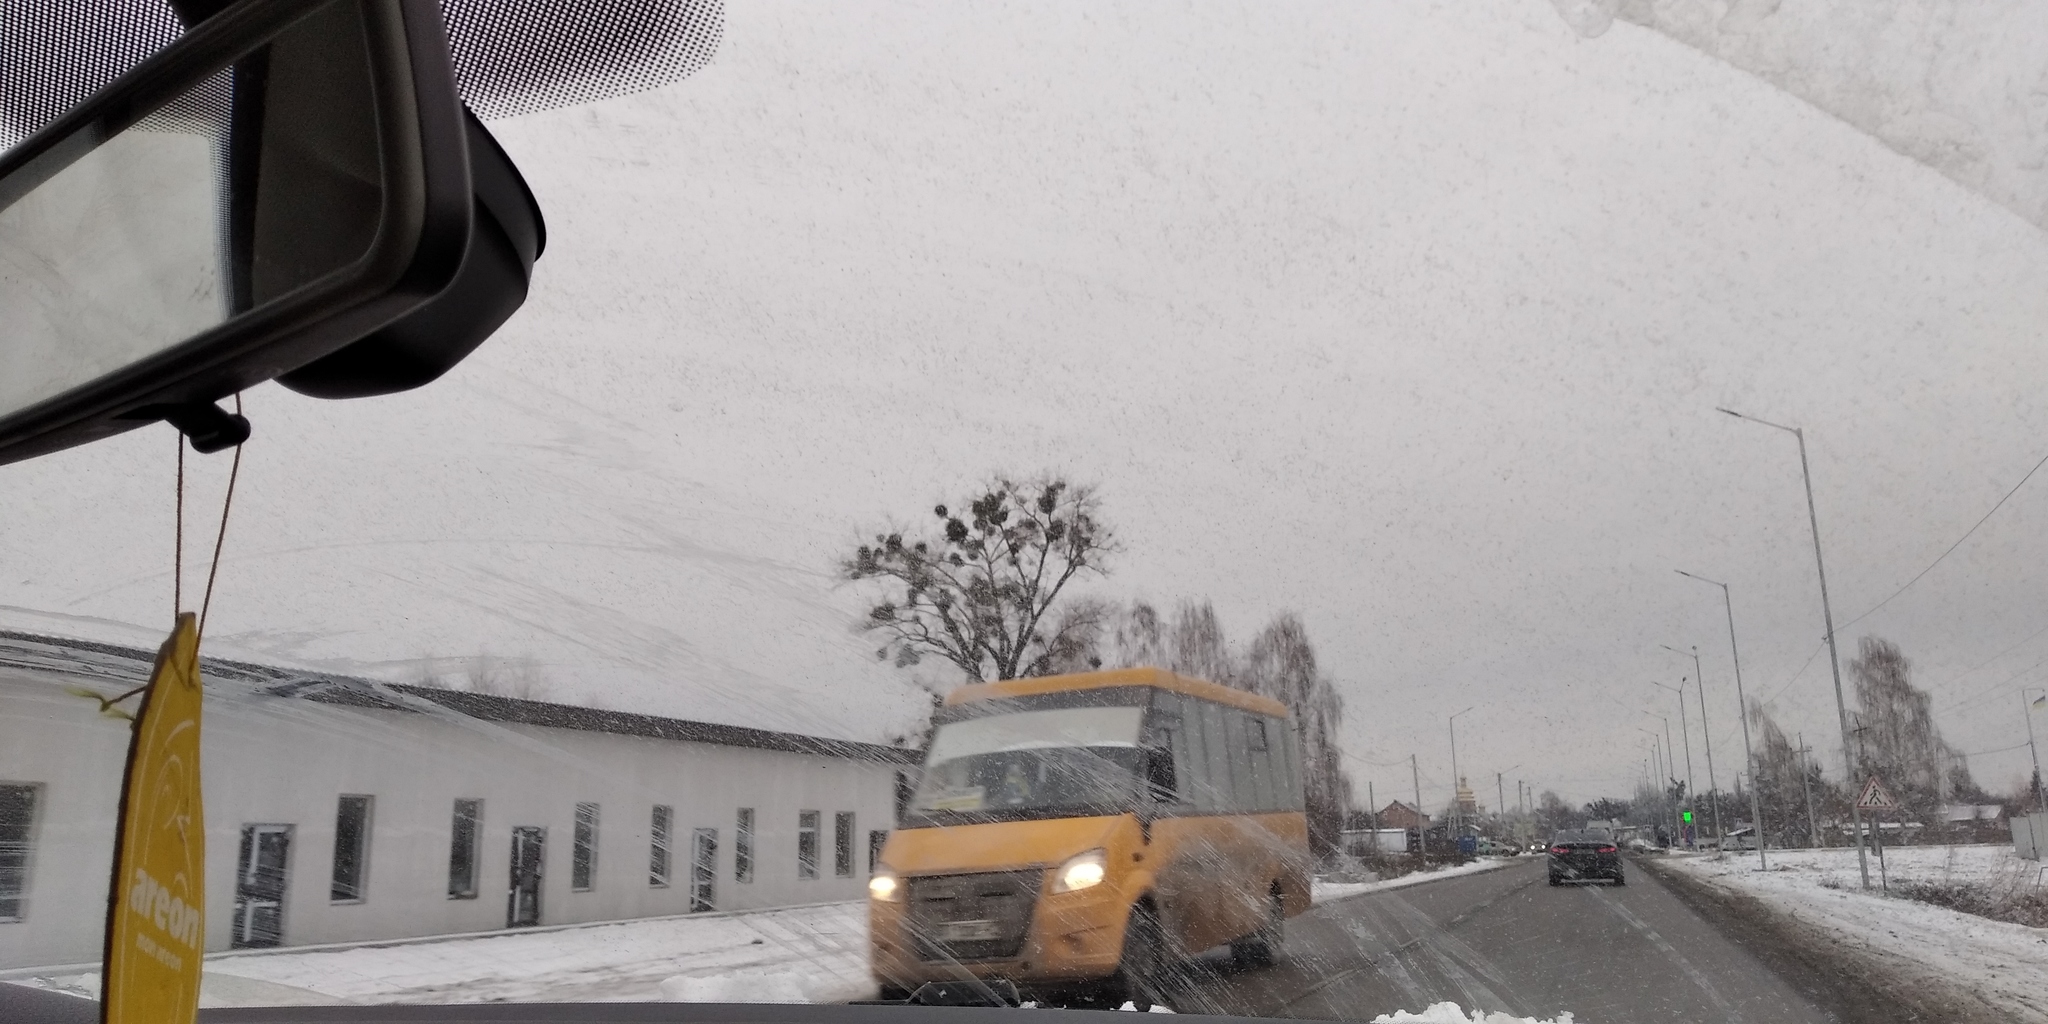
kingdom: Plantae
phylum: Tracheophyta
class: Magnoliopsida
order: Santalales
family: Viscaceae
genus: Viscum
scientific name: Viscum album
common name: Mistletoe
